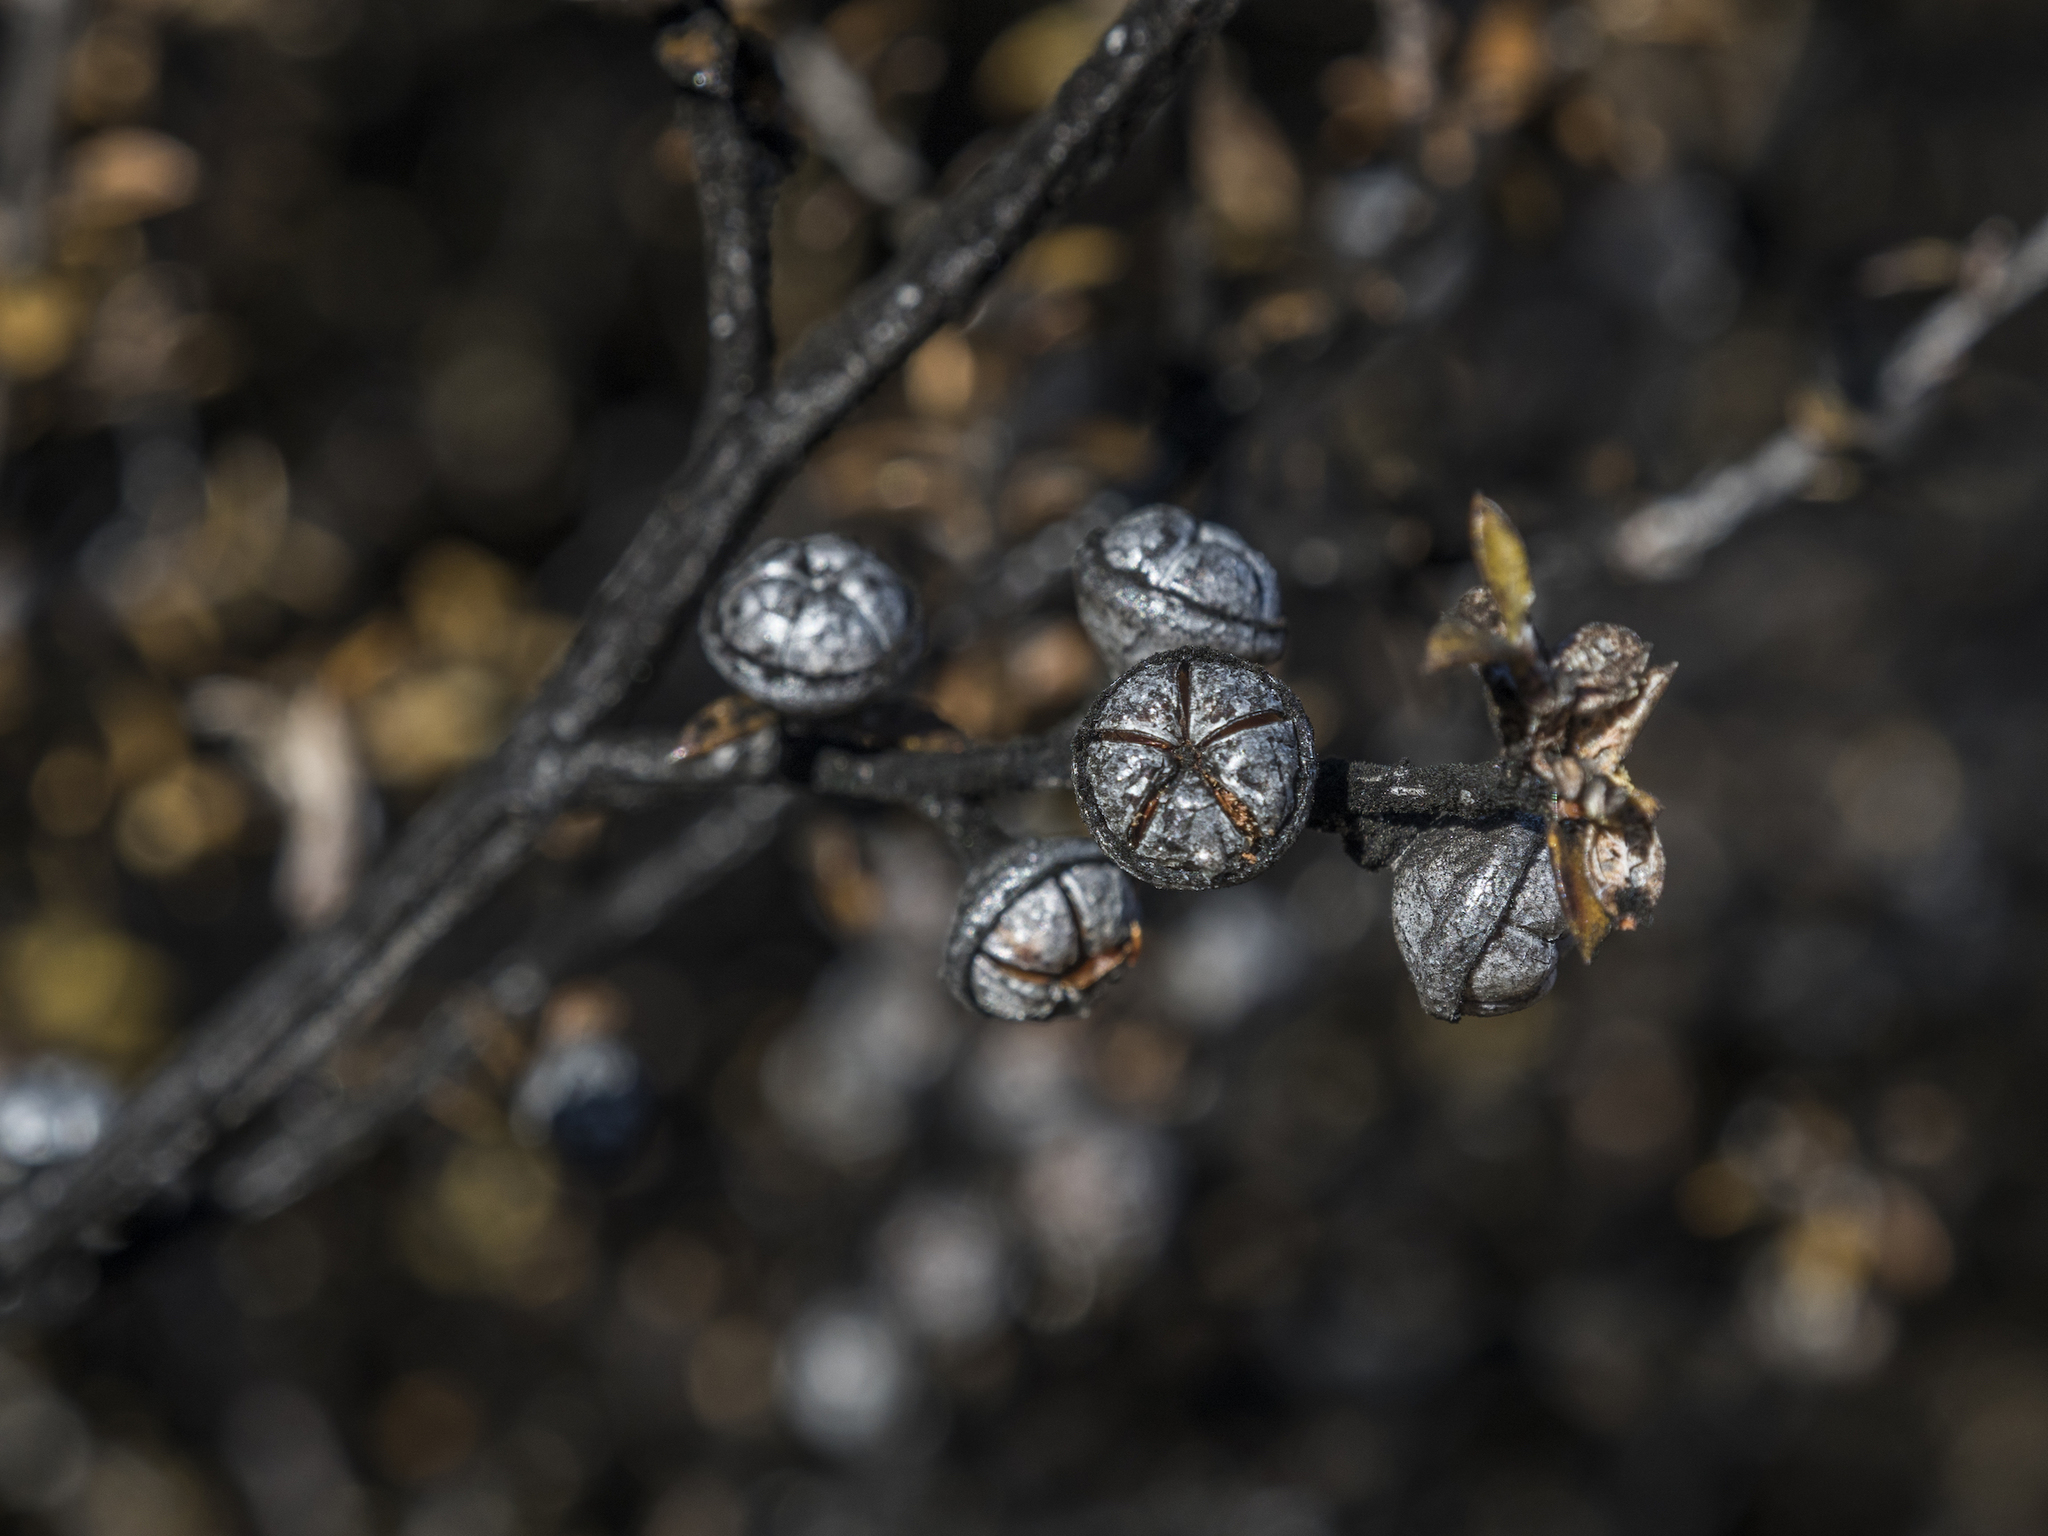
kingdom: Plantae
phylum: Tracheophyta
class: Magnoliopsida
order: Myrtales
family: Myrtaceae
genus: Leptospermum
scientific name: Leptospermum scoparium
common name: Broom tea-tree
